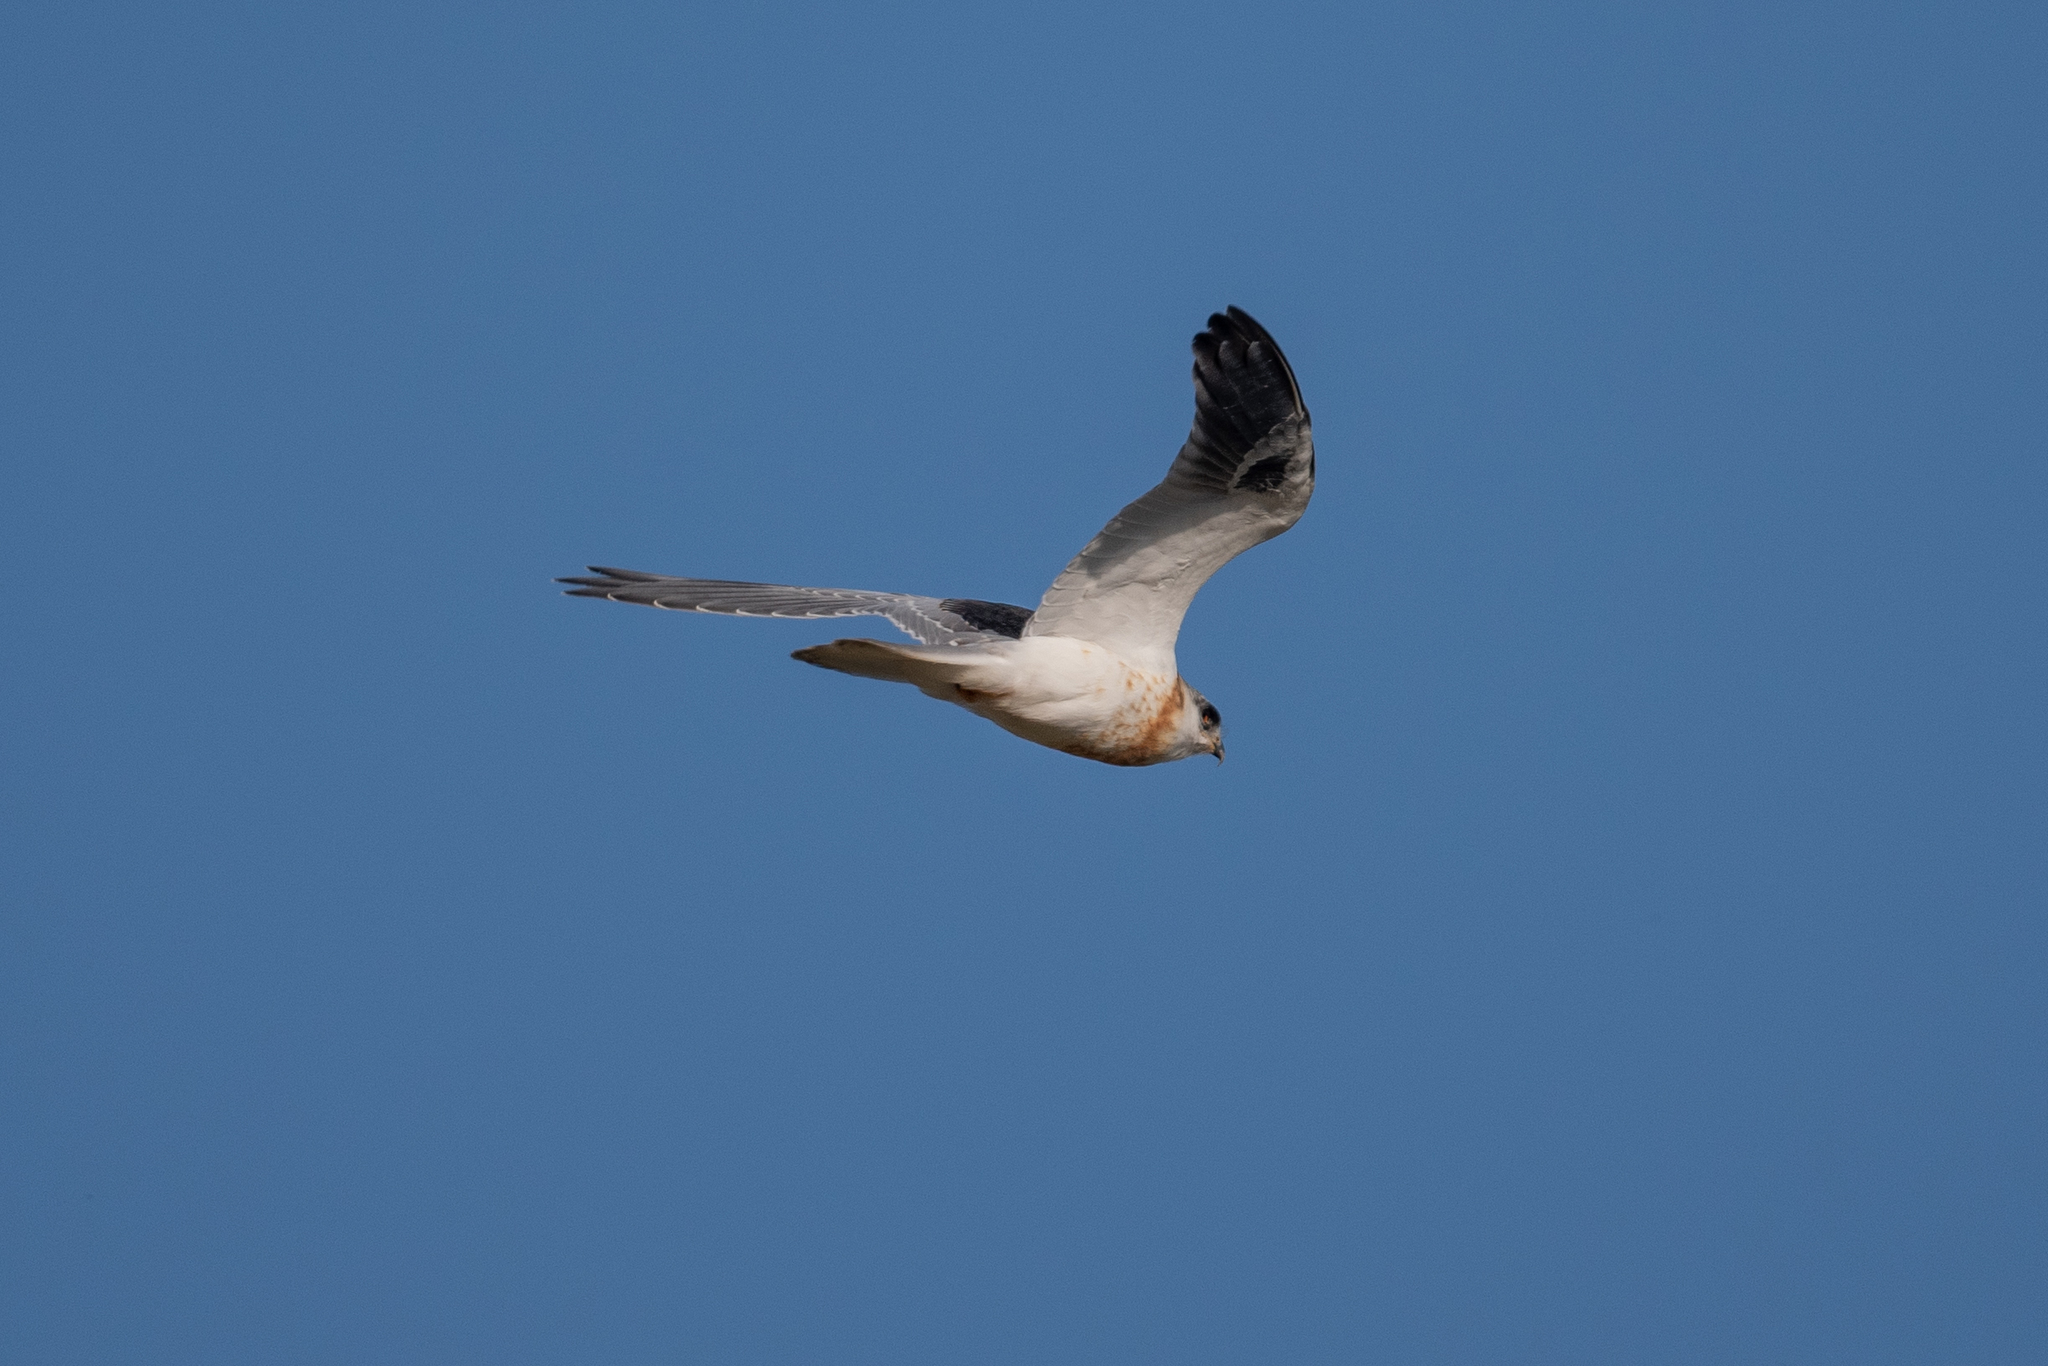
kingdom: Animalia
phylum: Chordata
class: Aves
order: Accipitriformes
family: Accipitridae
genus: Elanus
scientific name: Elanus leucurus
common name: White-tailed kite
